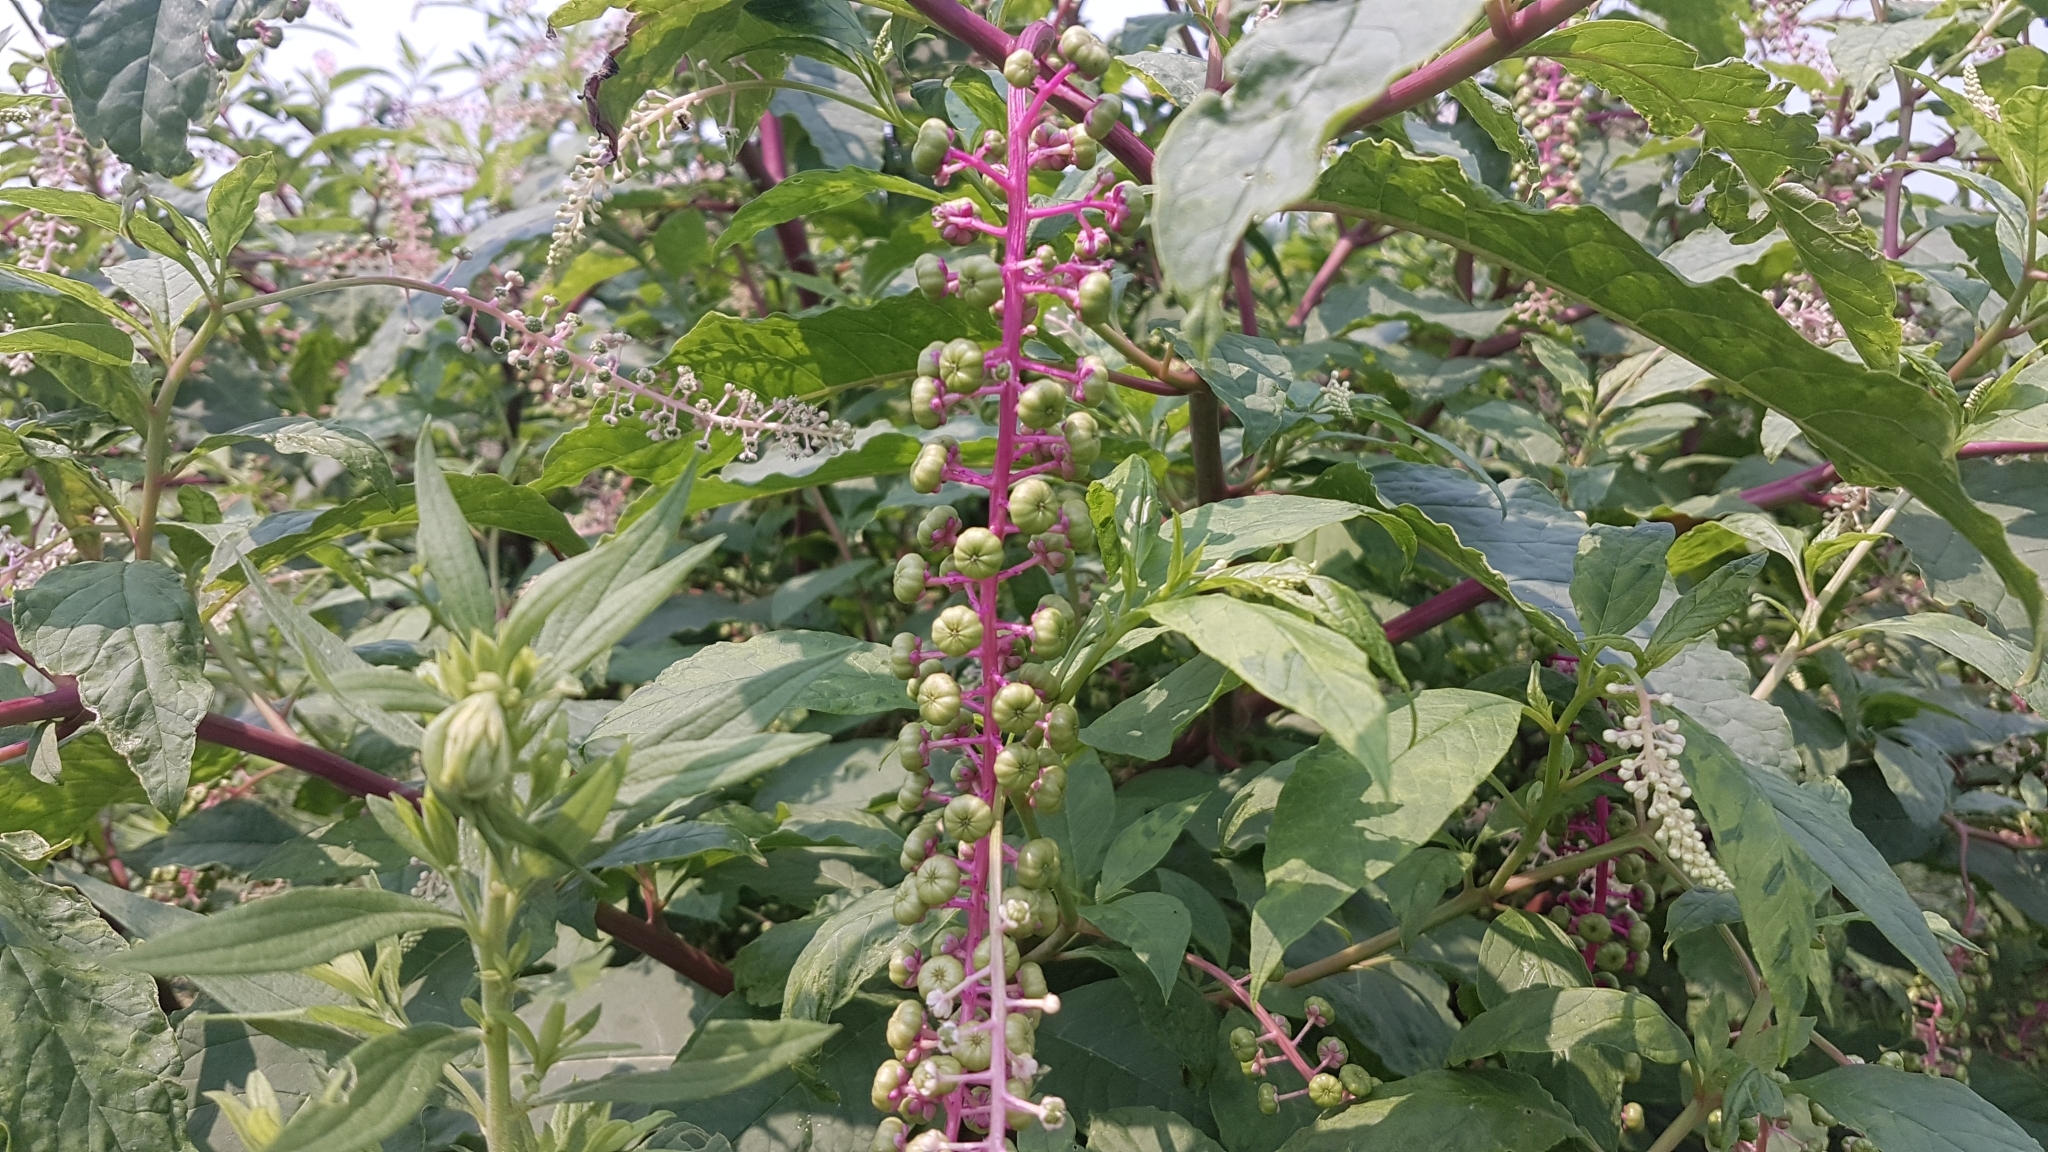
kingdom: Plantae
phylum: Tracheophyta
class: Magnoliopsida
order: Caryophyllales
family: Phytolaccaceae
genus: Phytolacca
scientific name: Phytolacca americana
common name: American pokeweed
